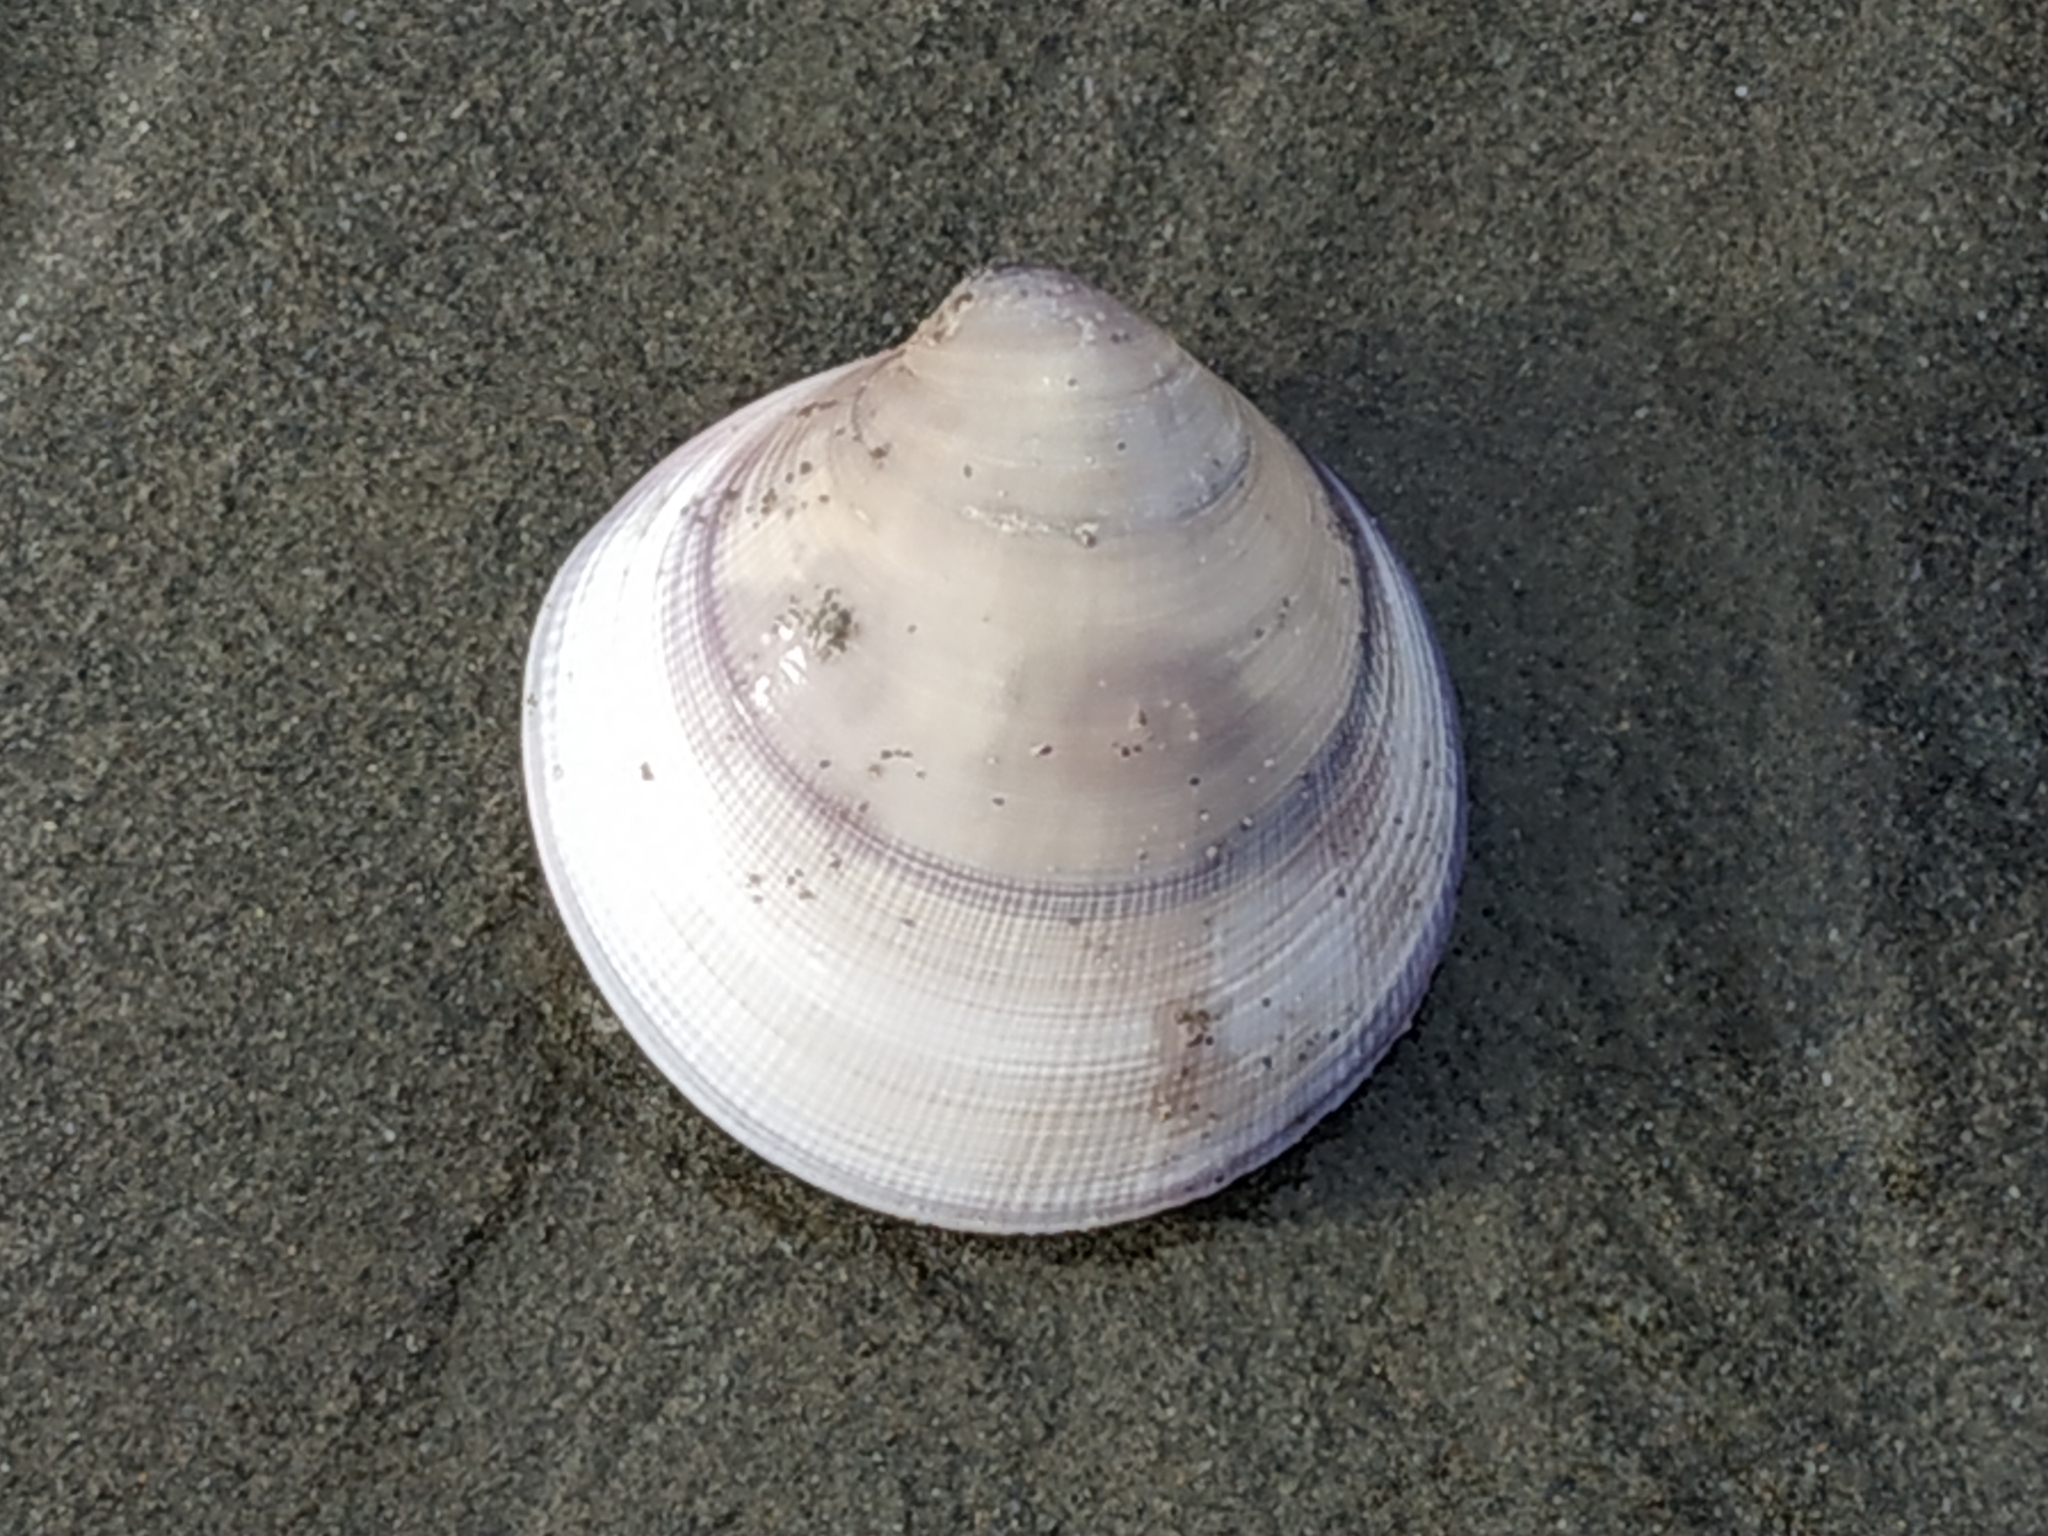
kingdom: Animalia
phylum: Mollusca
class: Bivalvia
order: Venerida
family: Veneridae
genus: Cyclina
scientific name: Cyclina sinensis
